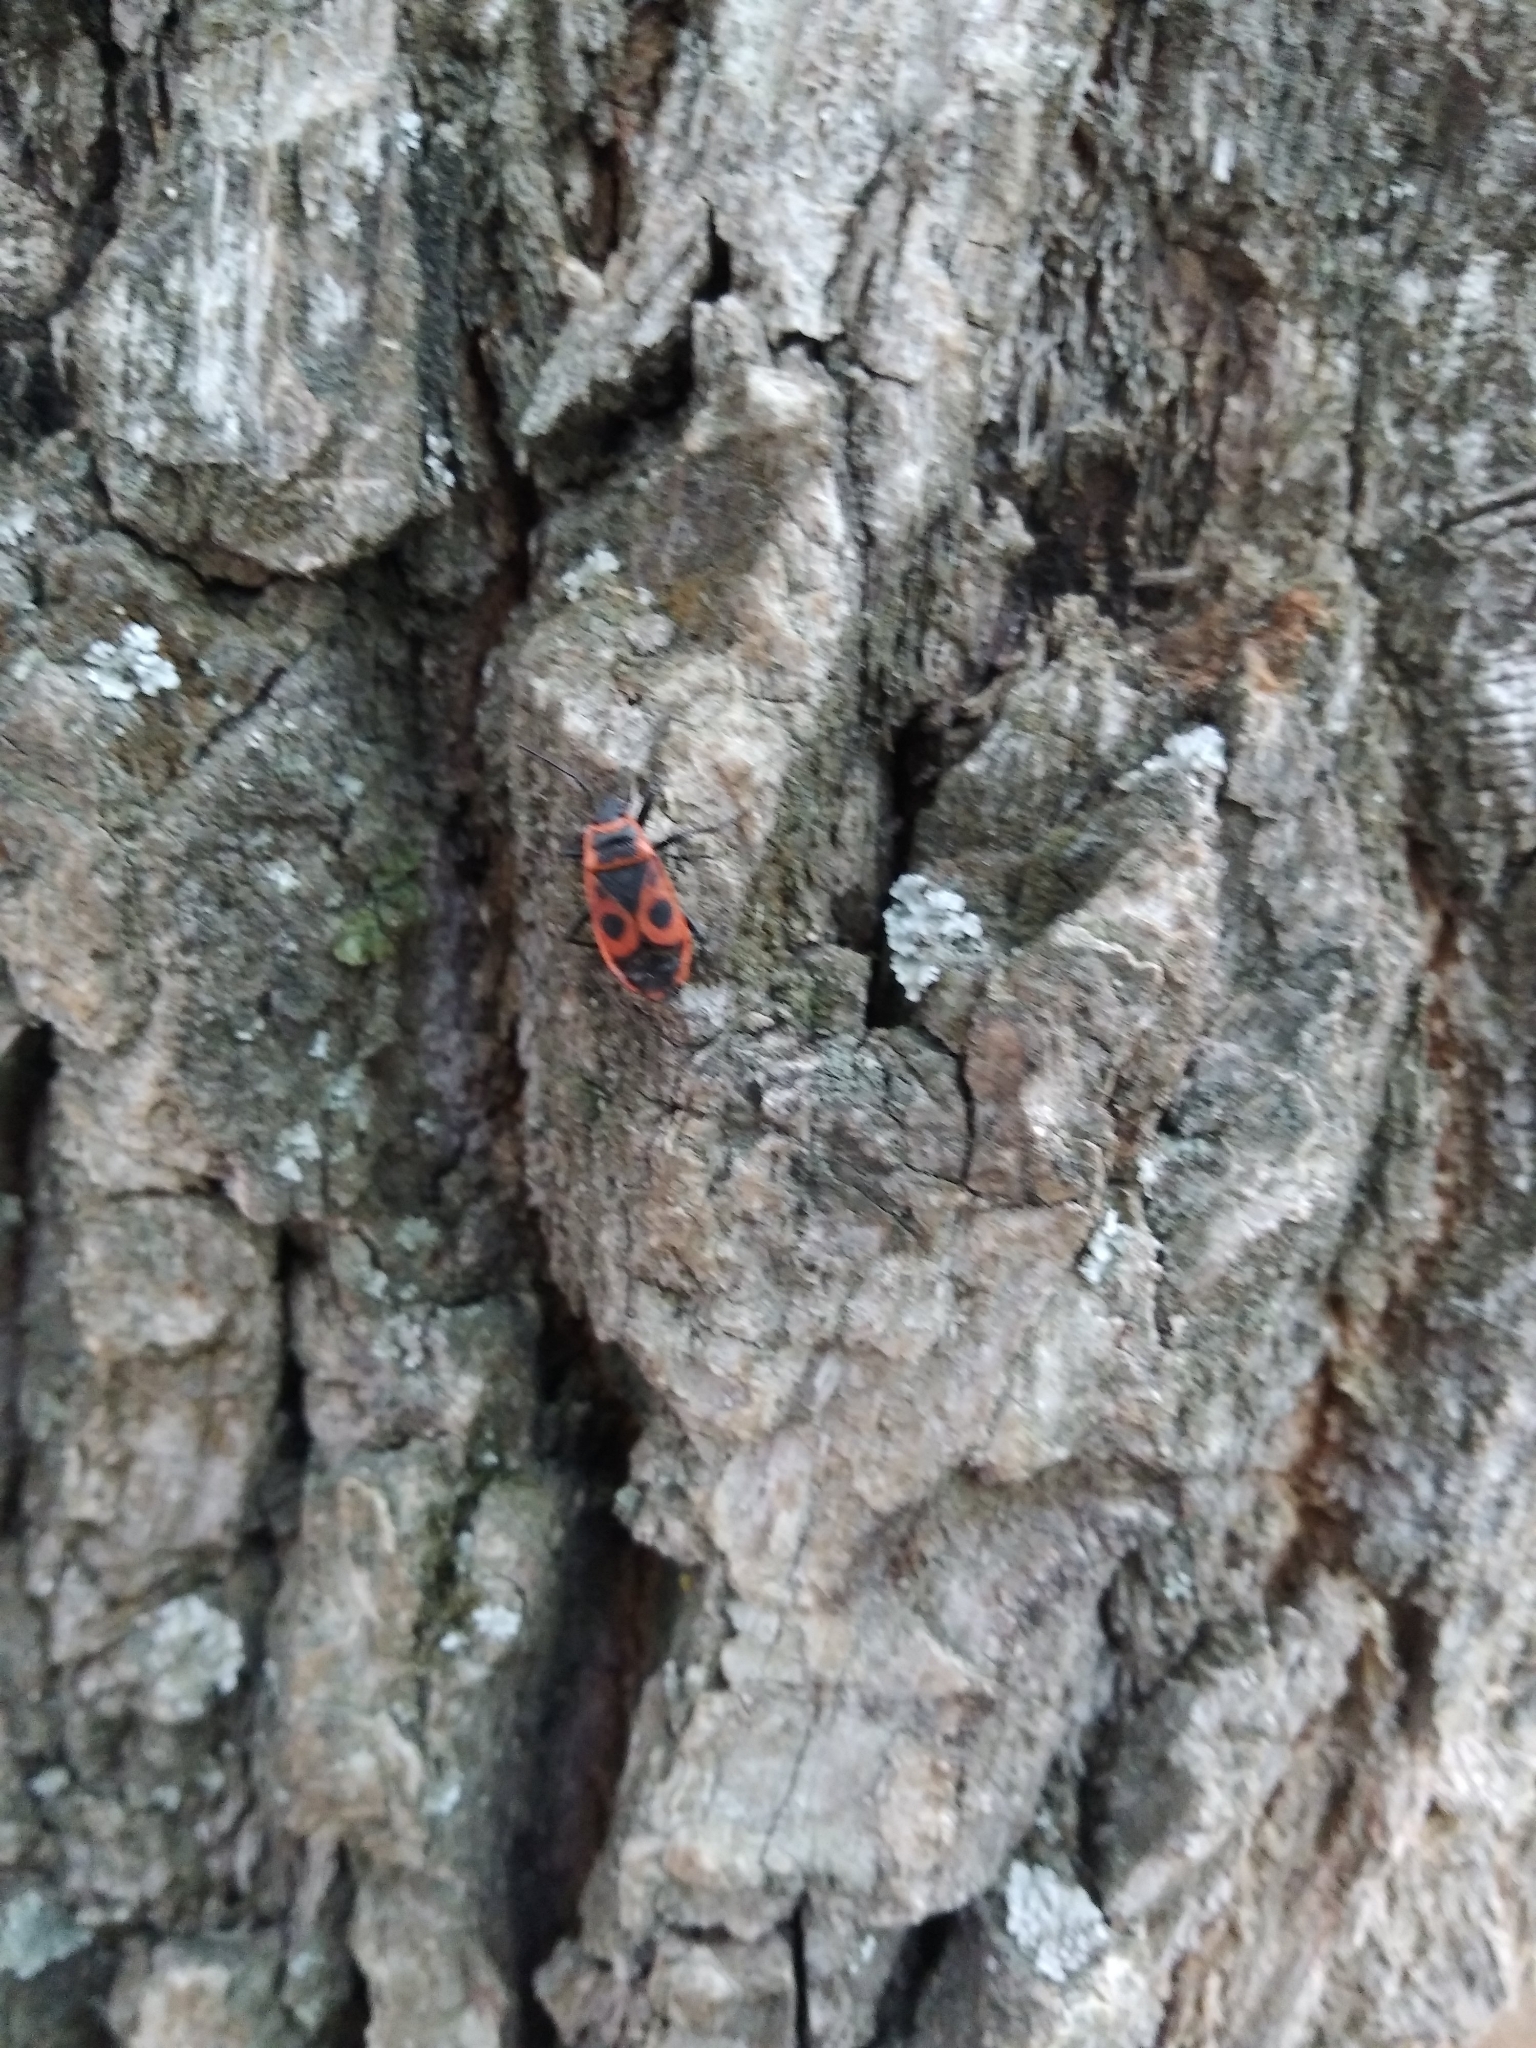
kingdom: Animalia
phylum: Arthropoda
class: Insecta
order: Hemiptera
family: Pyrrhocoridae
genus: Pyrrhocoris
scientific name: Pyrrhocoris apterus
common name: Firebug
